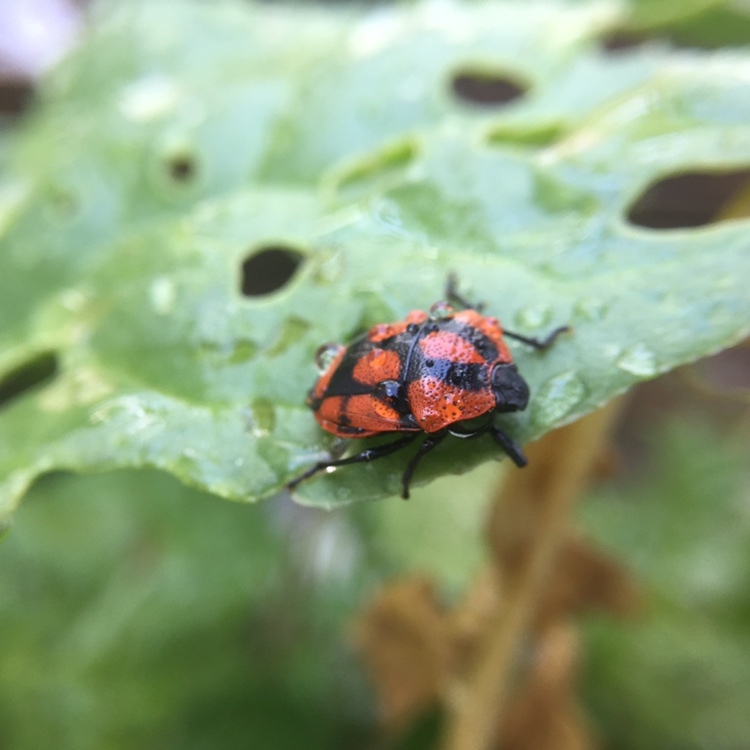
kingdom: Animalia
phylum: Arthropoda
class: Insecta
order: Hemiptera
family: Pentatomidae
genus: Stiretrus
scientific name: Stiretrus
